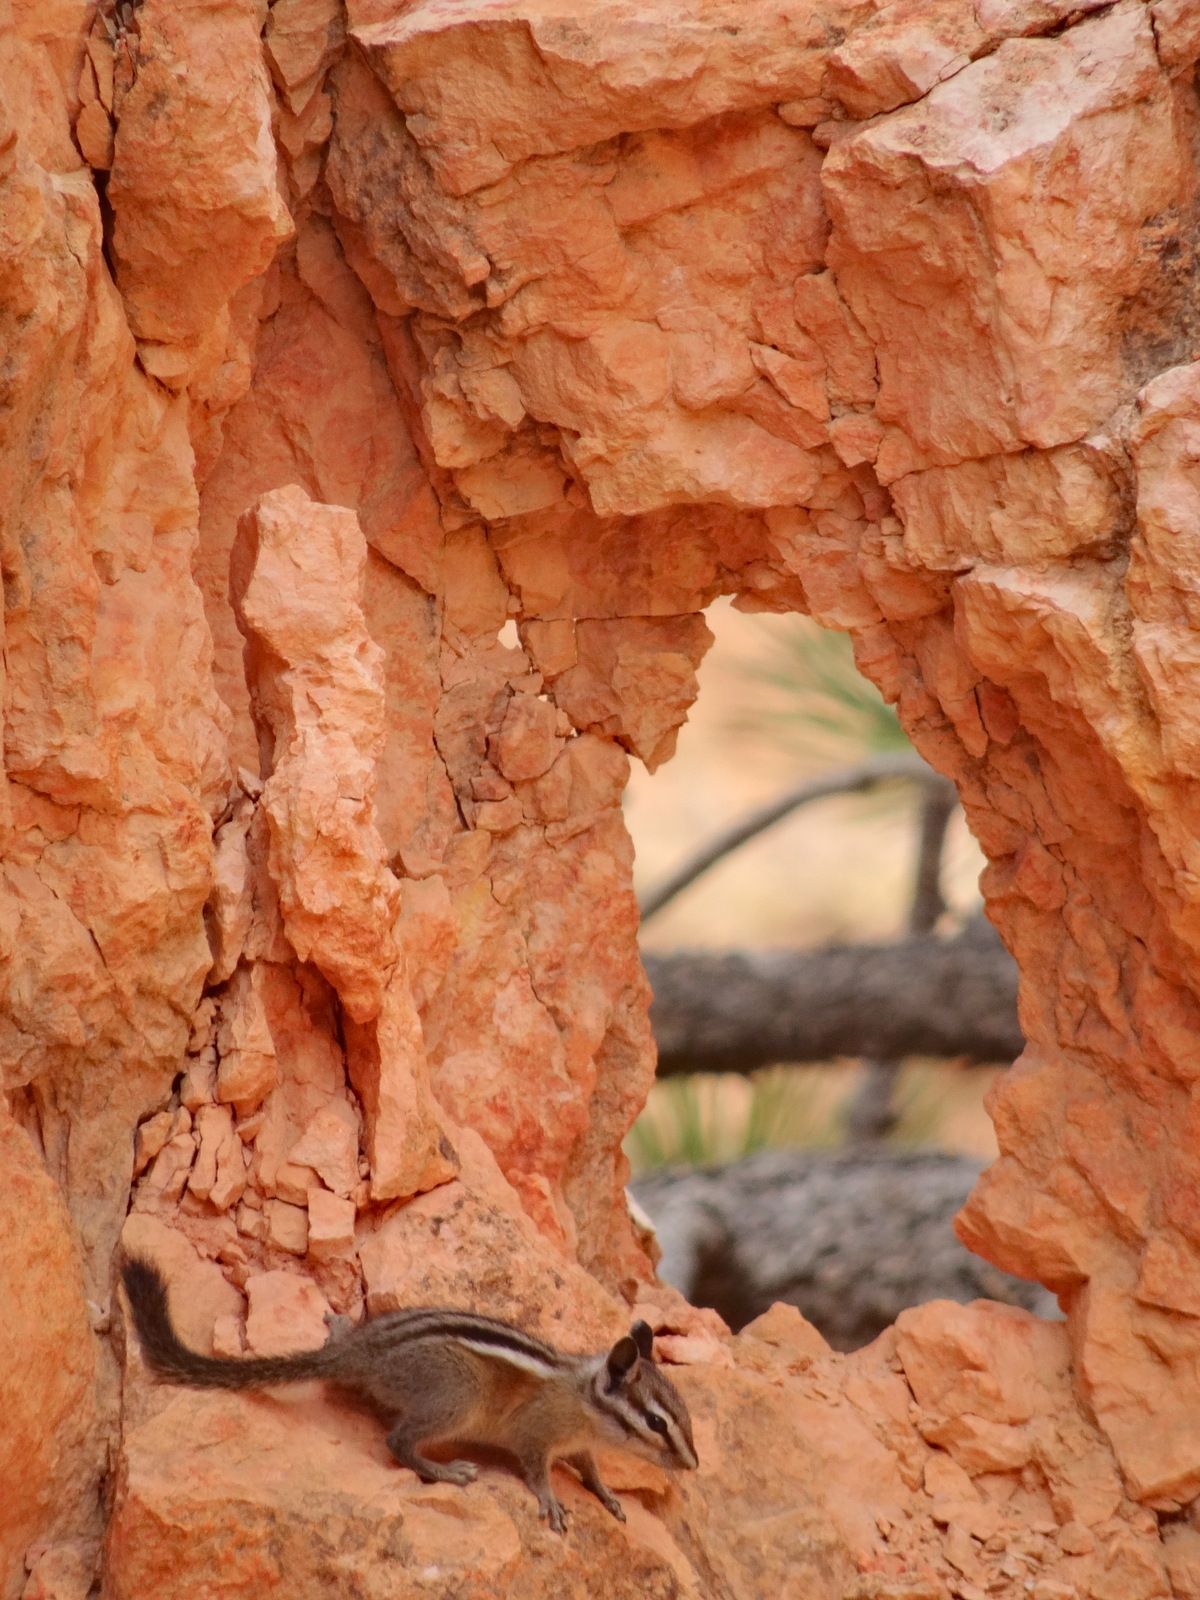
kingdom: Animalia
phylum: Chordata
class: Mammalia
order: Rodentia
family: Sciuridae
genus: Tamias
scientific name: Tamias umbrinus
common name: Uinta chipmunk
